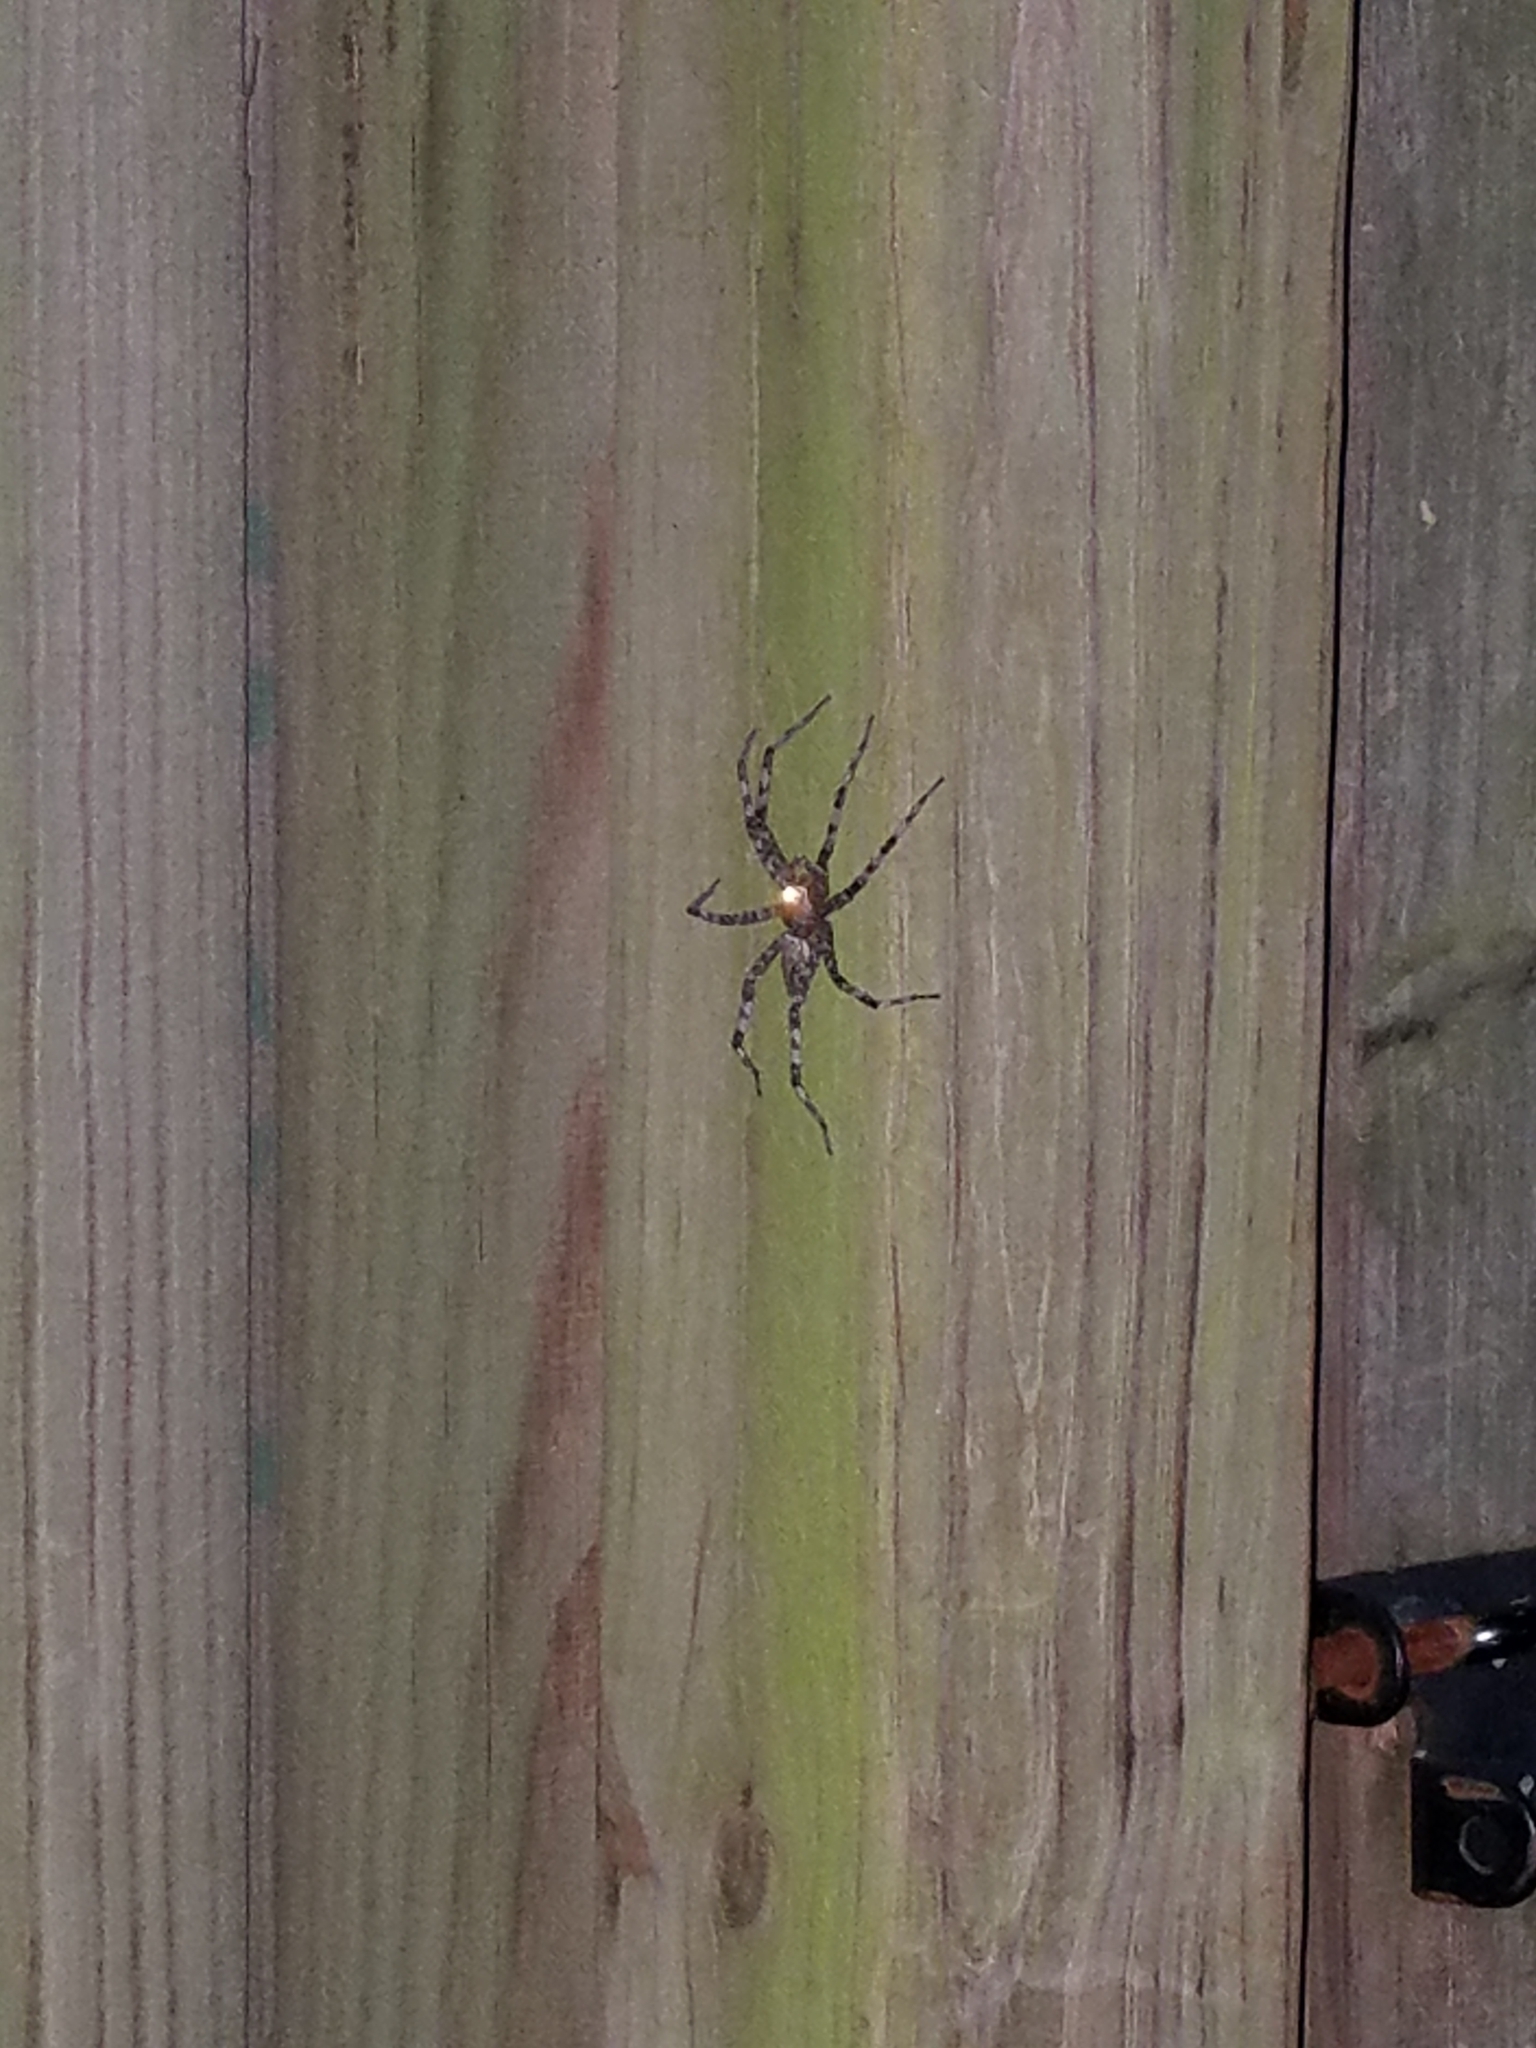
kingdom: Animalia
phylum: Arthropoda
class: Arachnida
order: Araneae
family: Pisauridae
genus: Dolomedes
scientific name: Dolomedes albineus
